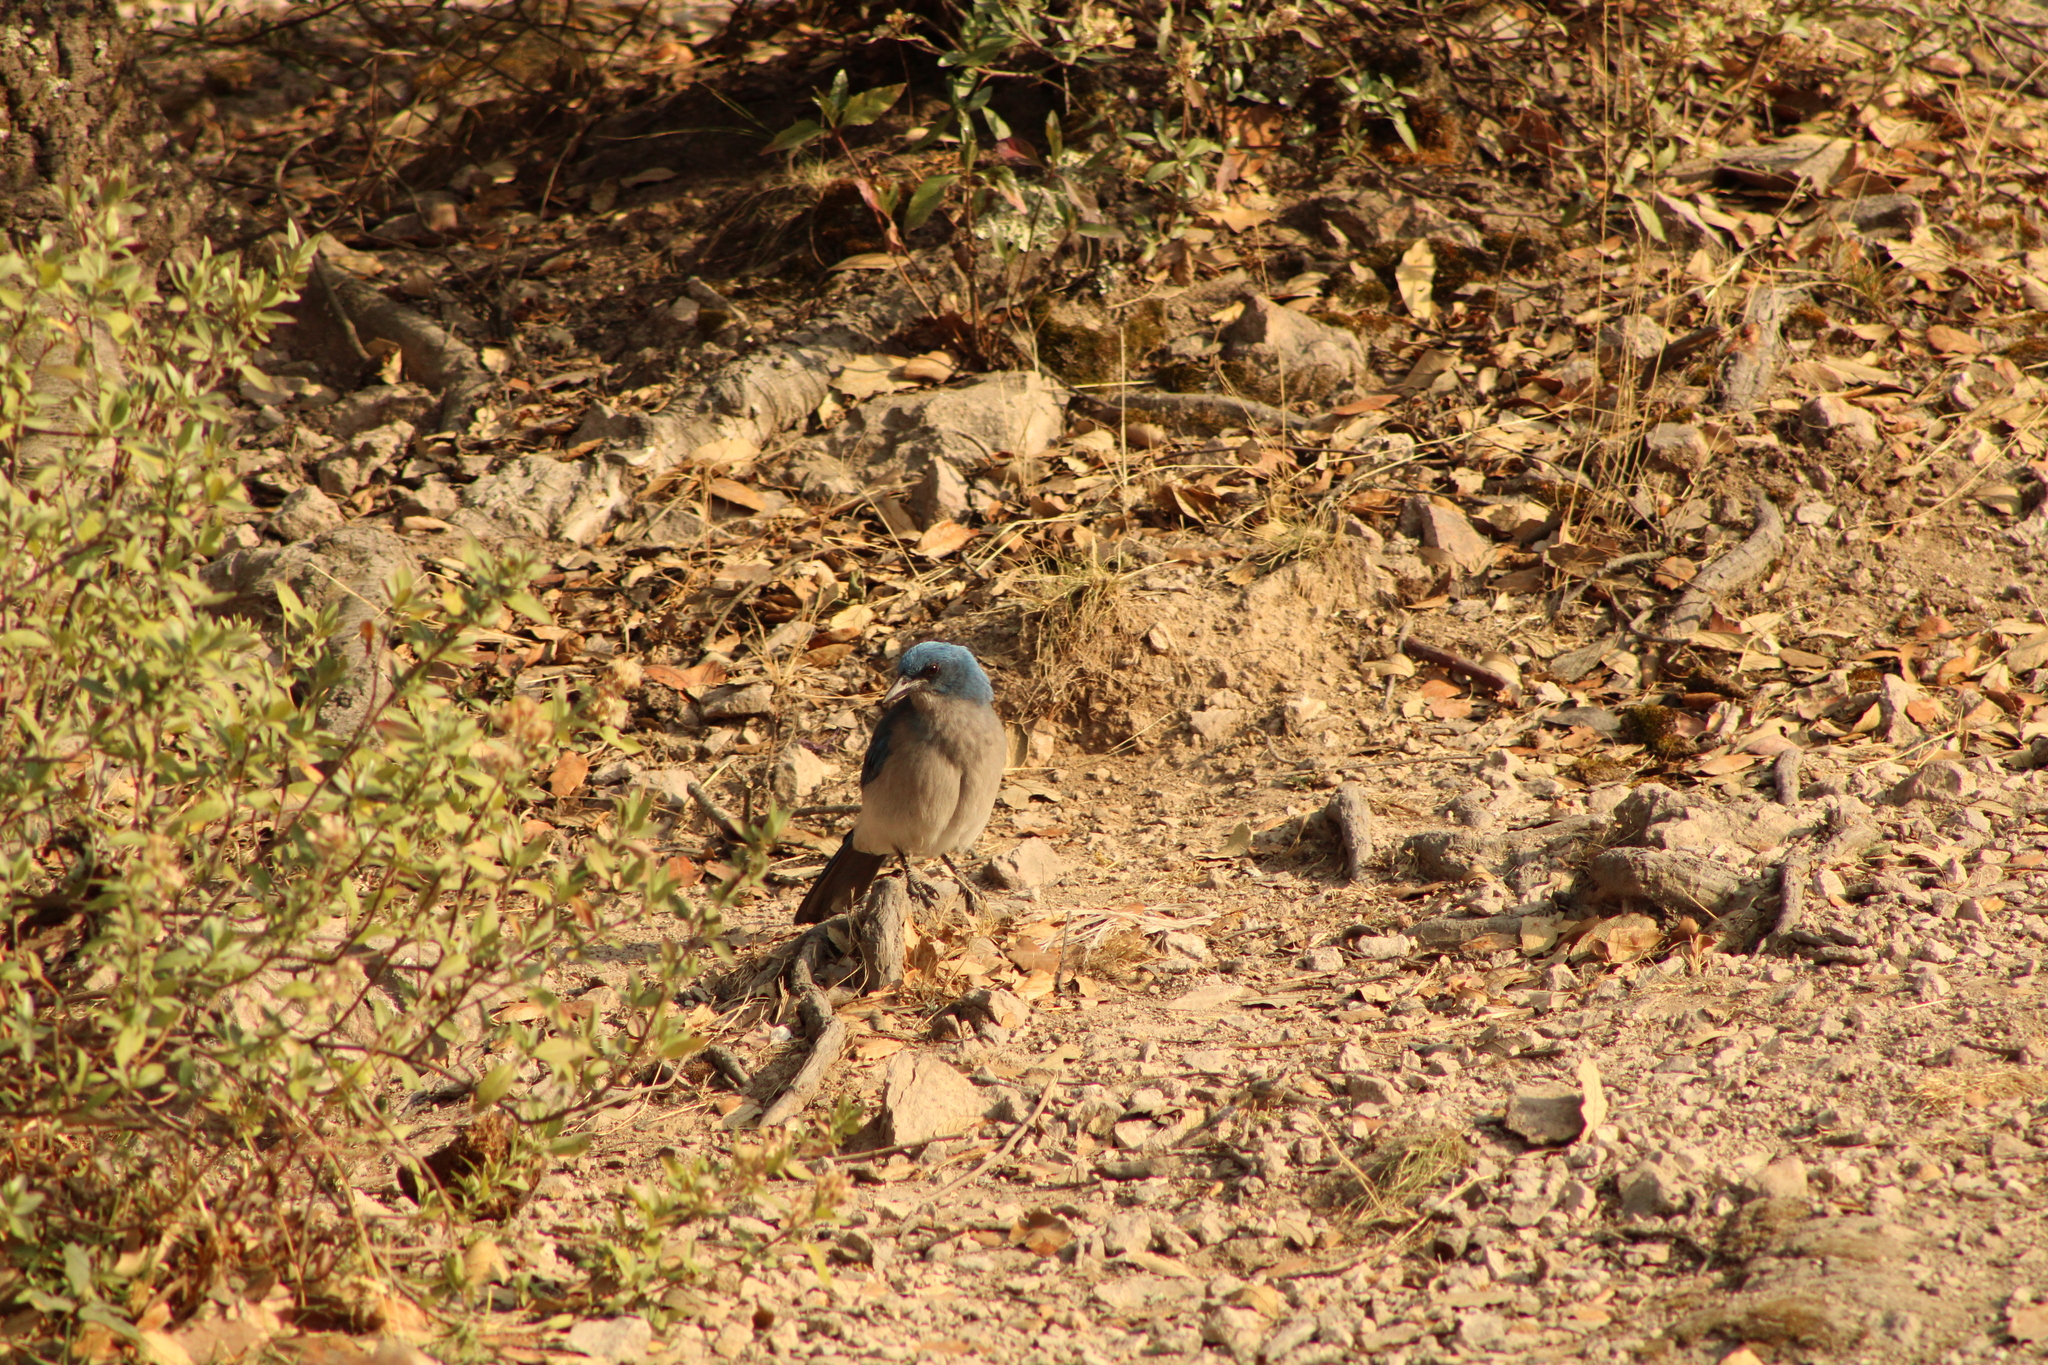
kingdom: Animalia
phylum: Chordata
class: Aves
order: Passeriformes
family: Corvidae
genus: Aphelocoma
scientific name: Aphelocoma wollweberi
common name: Mexican jay
